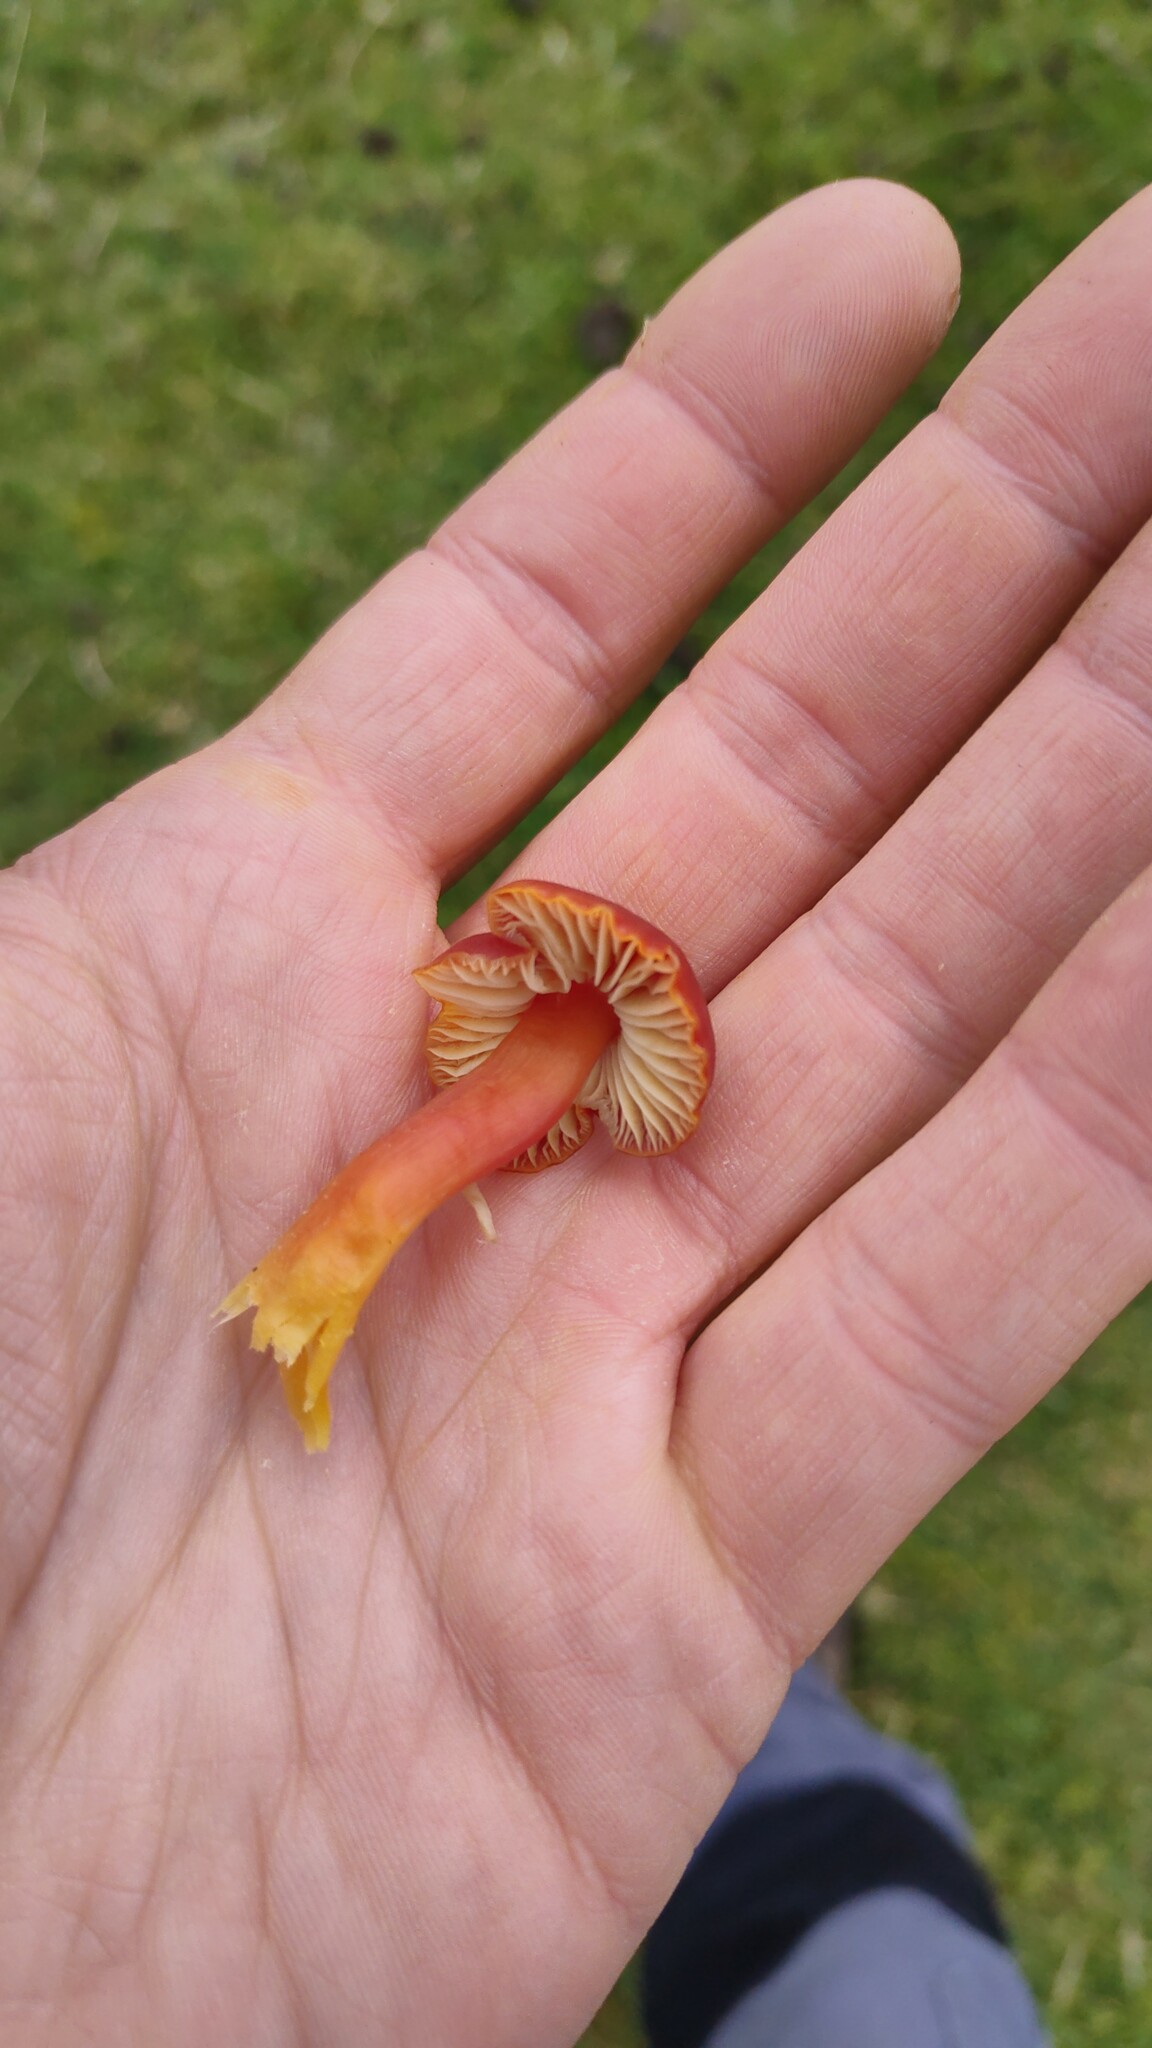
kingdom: Fungi
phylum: Basidiomycota
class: Agaricomycetes
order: Agaricales
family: Hygrophoraceae
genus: Hygrocybe
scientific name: Hygrocybe coccinea
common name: Scarlet hood
